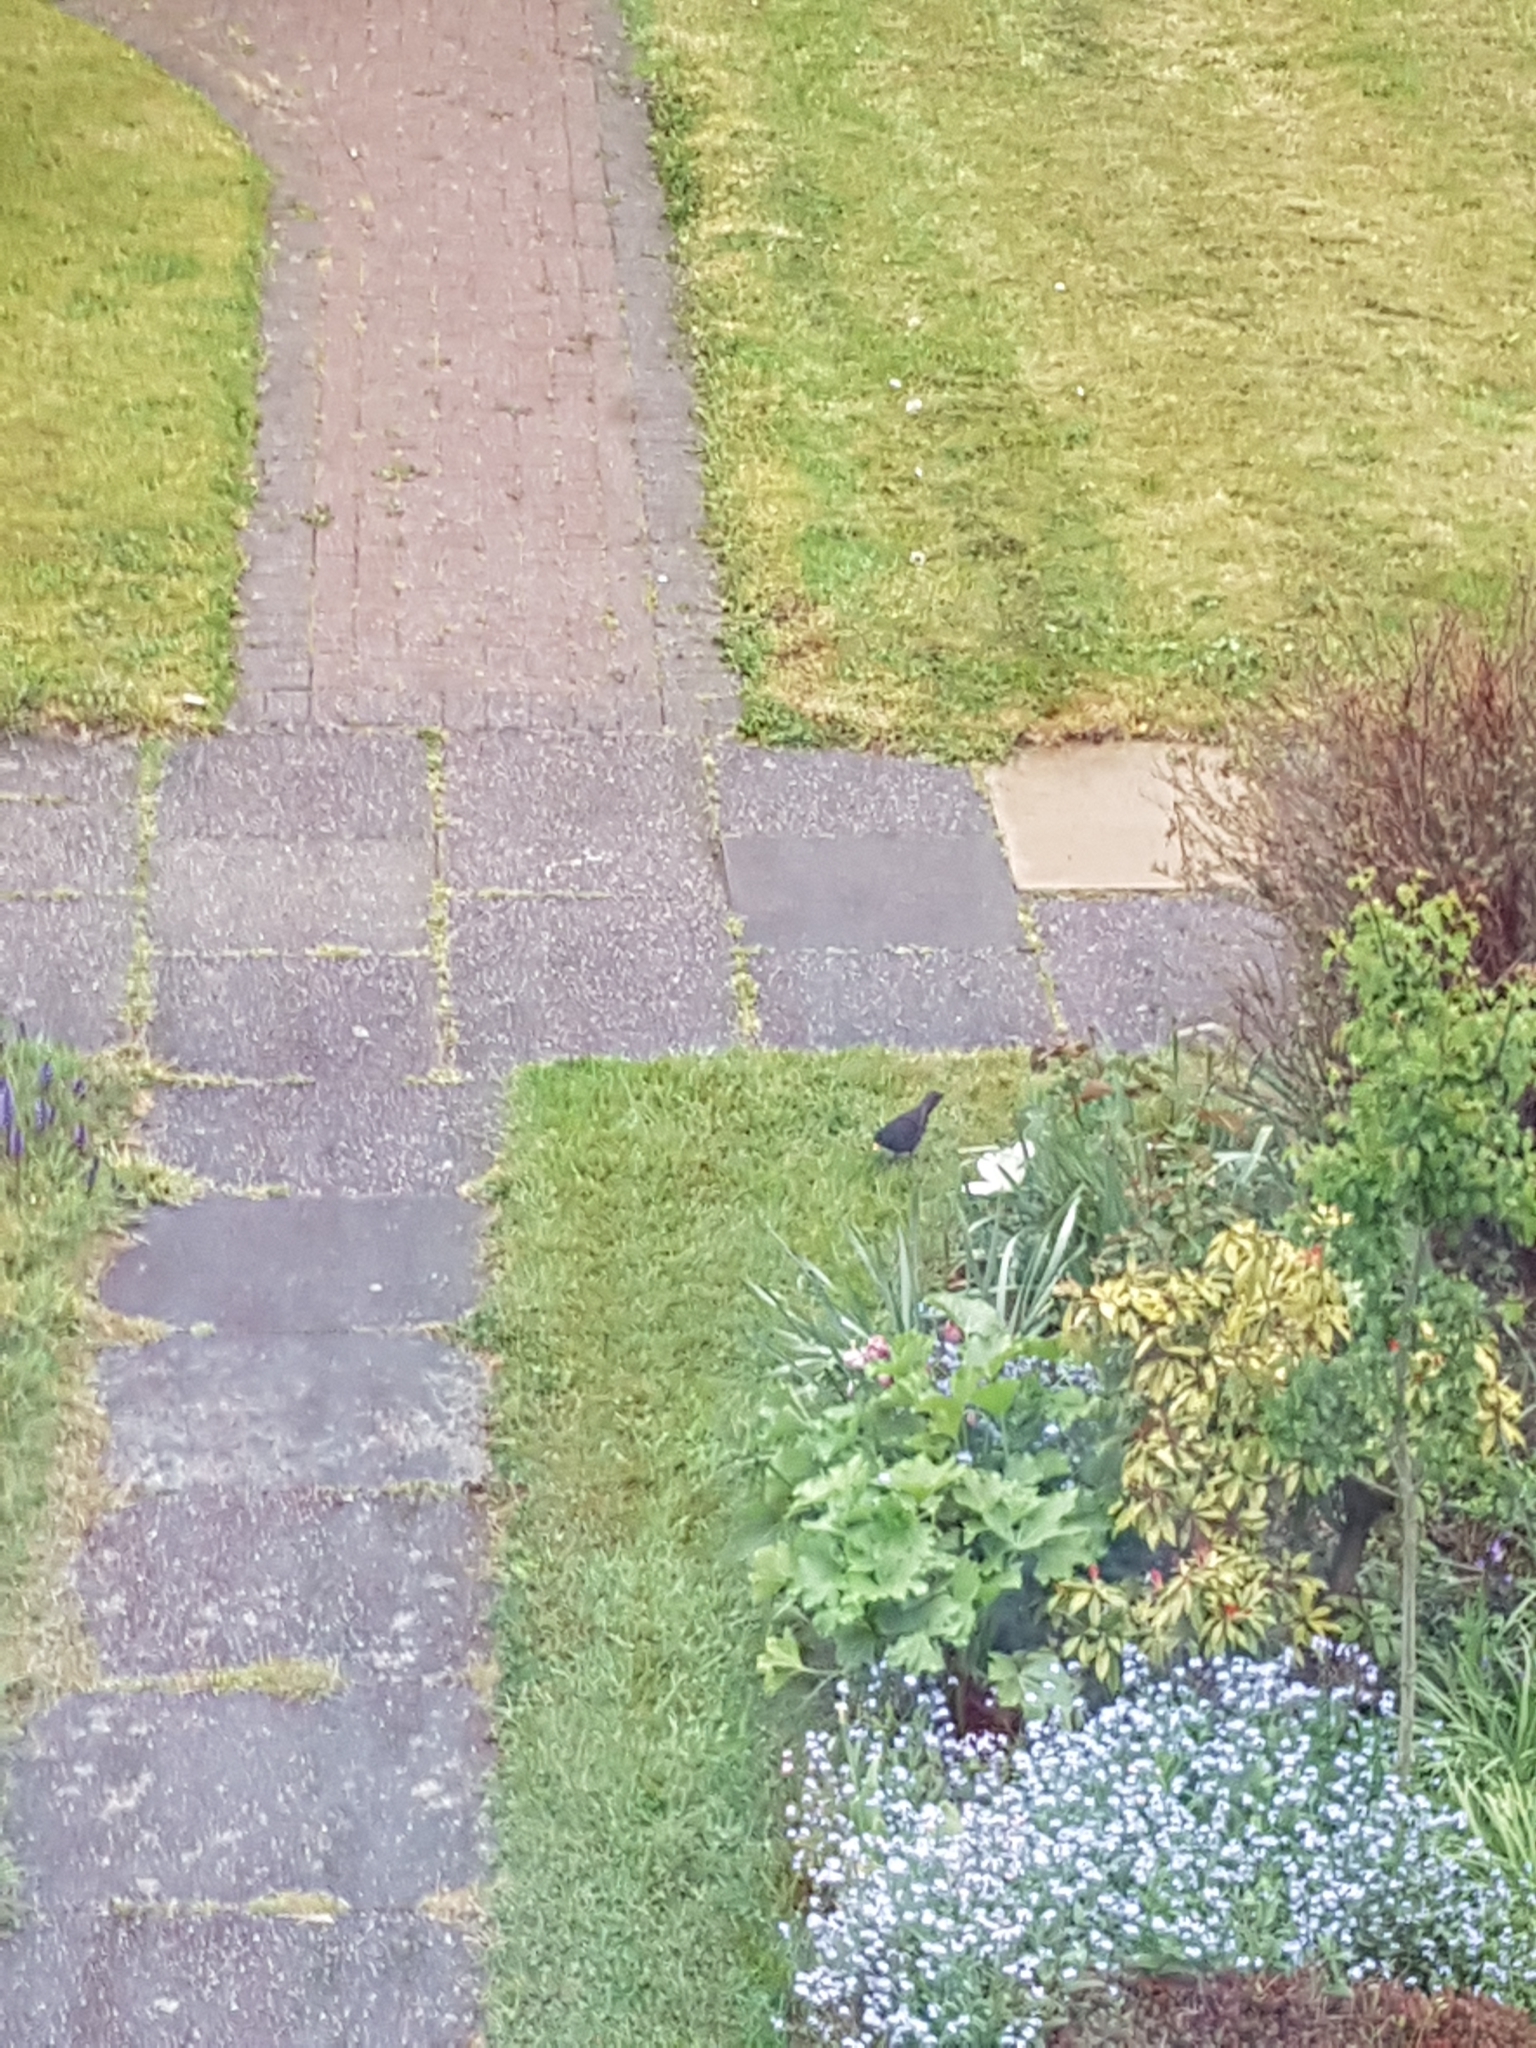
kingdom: Animalia
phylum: Chordata
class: Aves
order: Passeriformes
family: Turdidae
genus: Turdus
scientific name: Turdus merula
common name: Common blackbird
